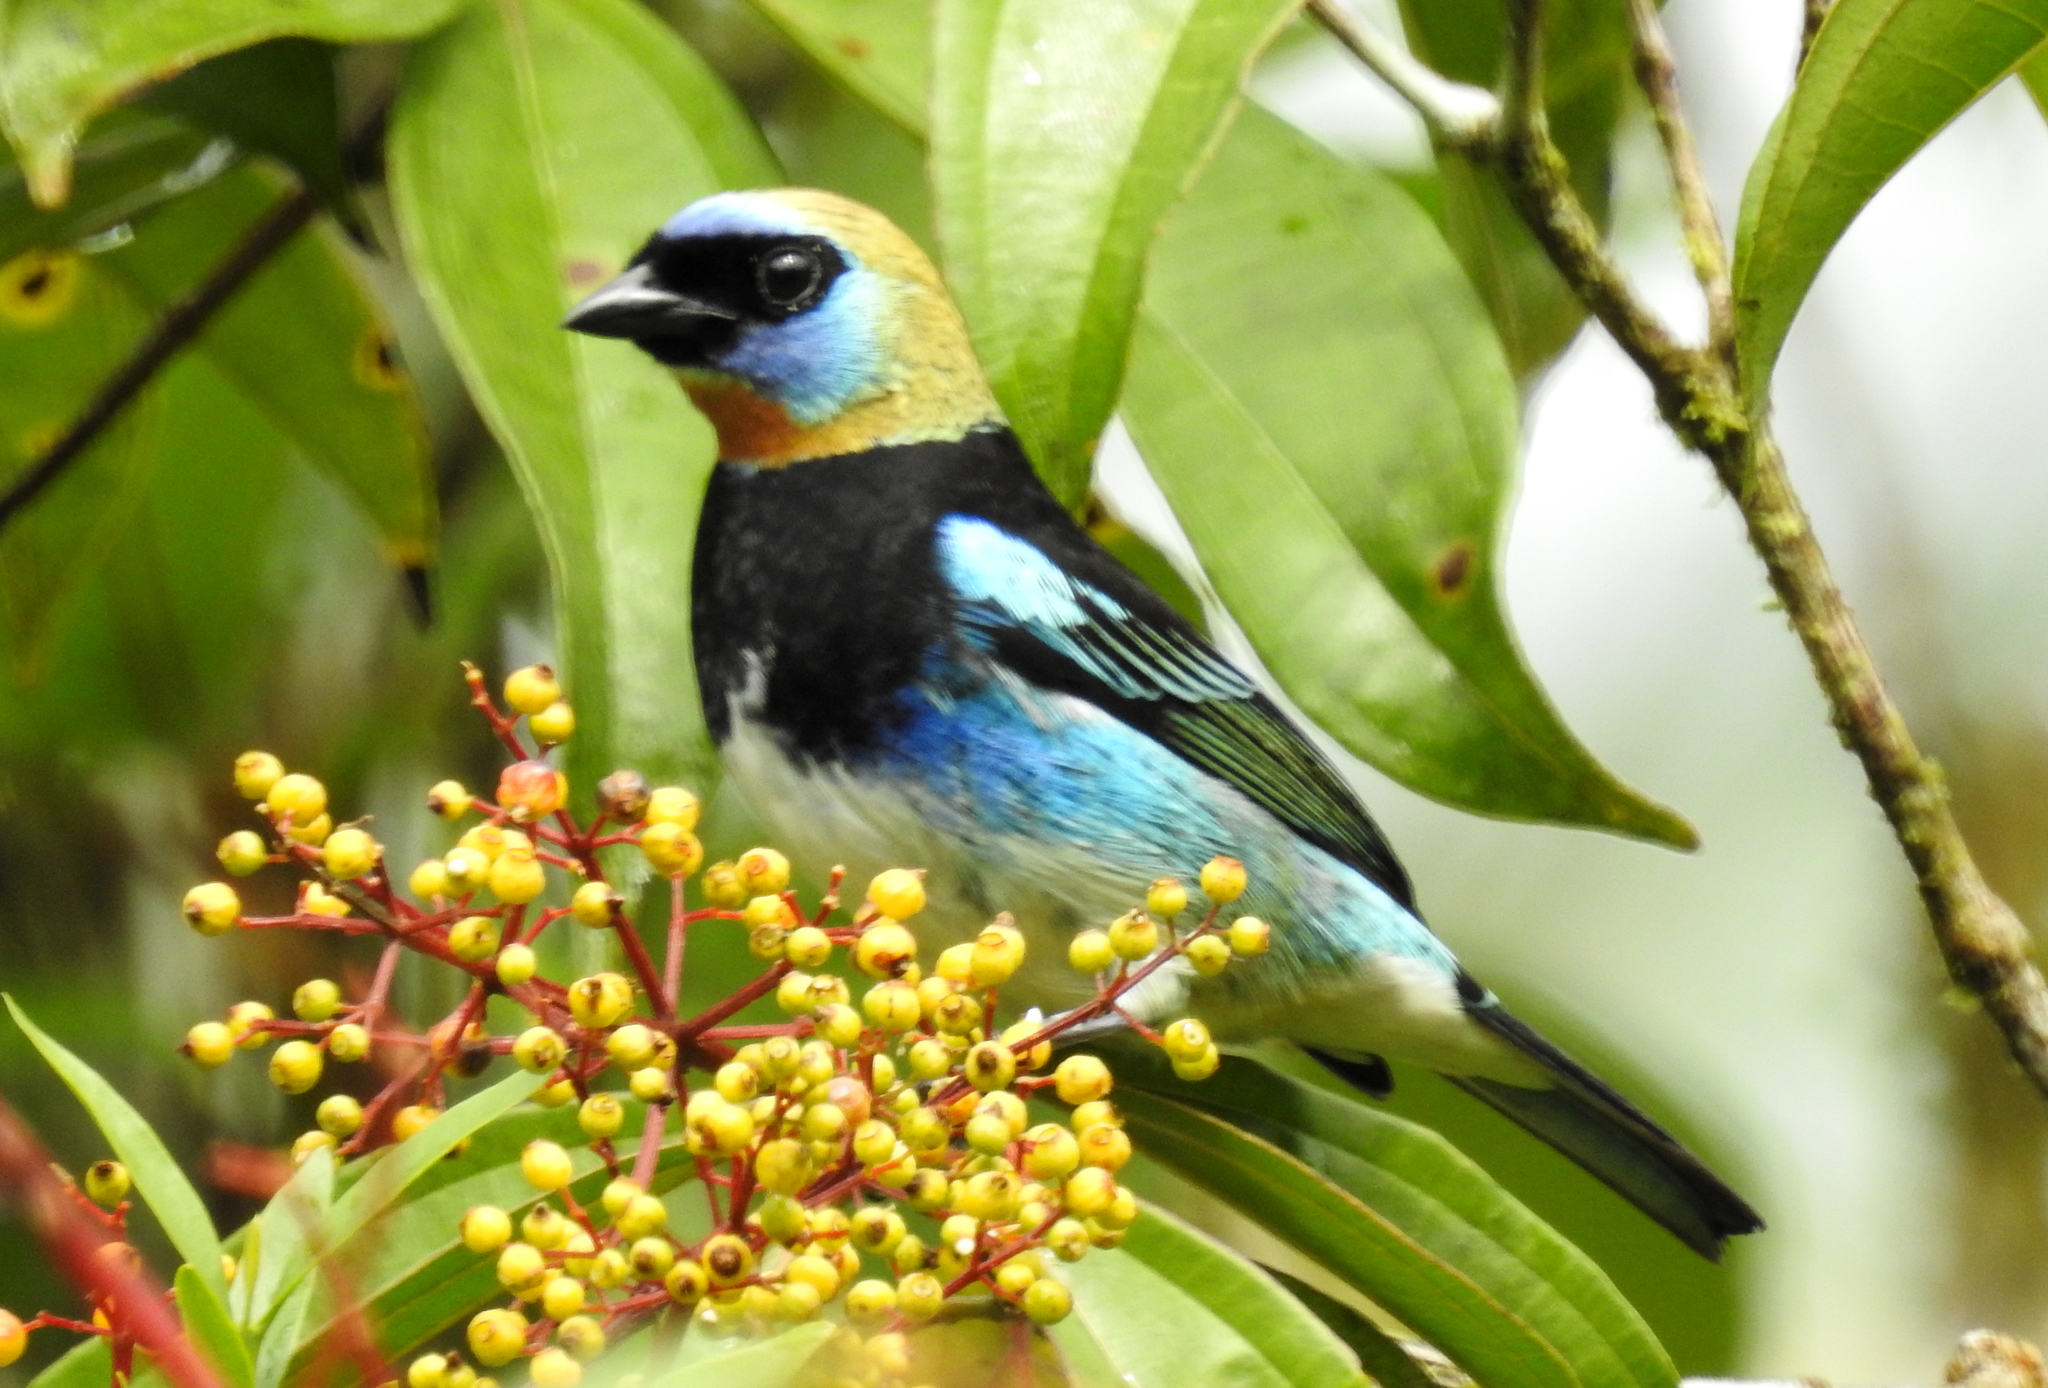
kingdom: Animalia
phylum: Chordata
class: Aves
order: Passeriformes
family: Thraupidae
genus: Stilpnia
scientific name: Stilpnia larvata
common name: Golden-hooded tanager
